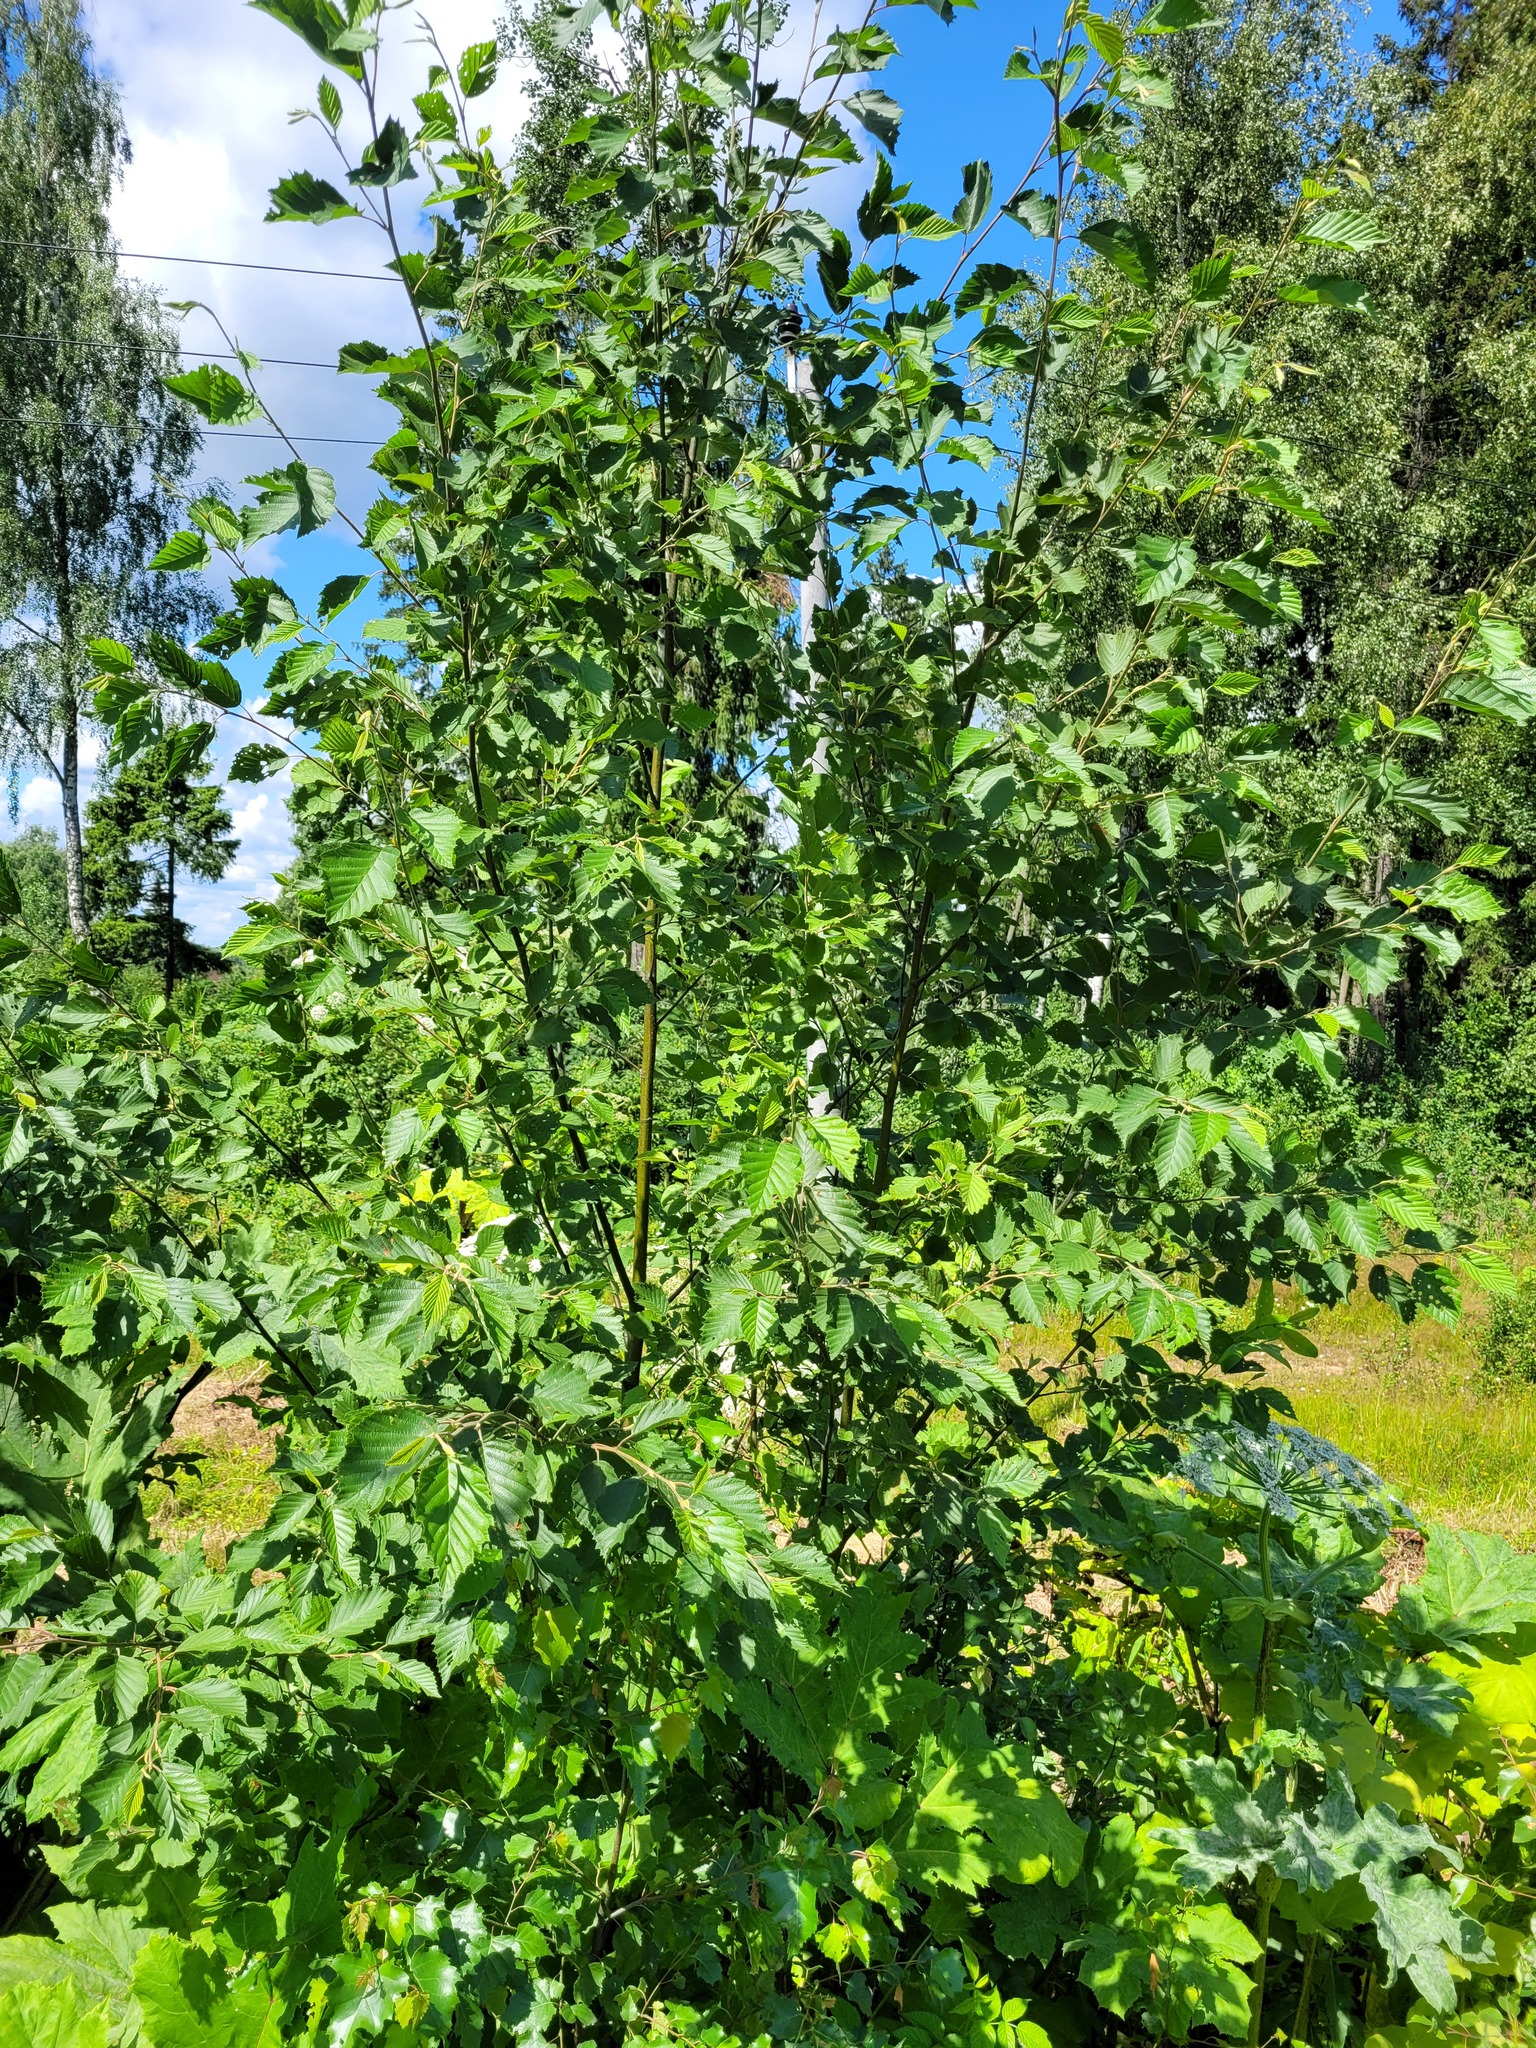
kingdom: Plantae
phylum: Tracheophyta
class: Magnoliopsida
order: Fagales
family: Betulaceae
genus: Alnus
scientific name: Alnus incana
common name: Grey alder
